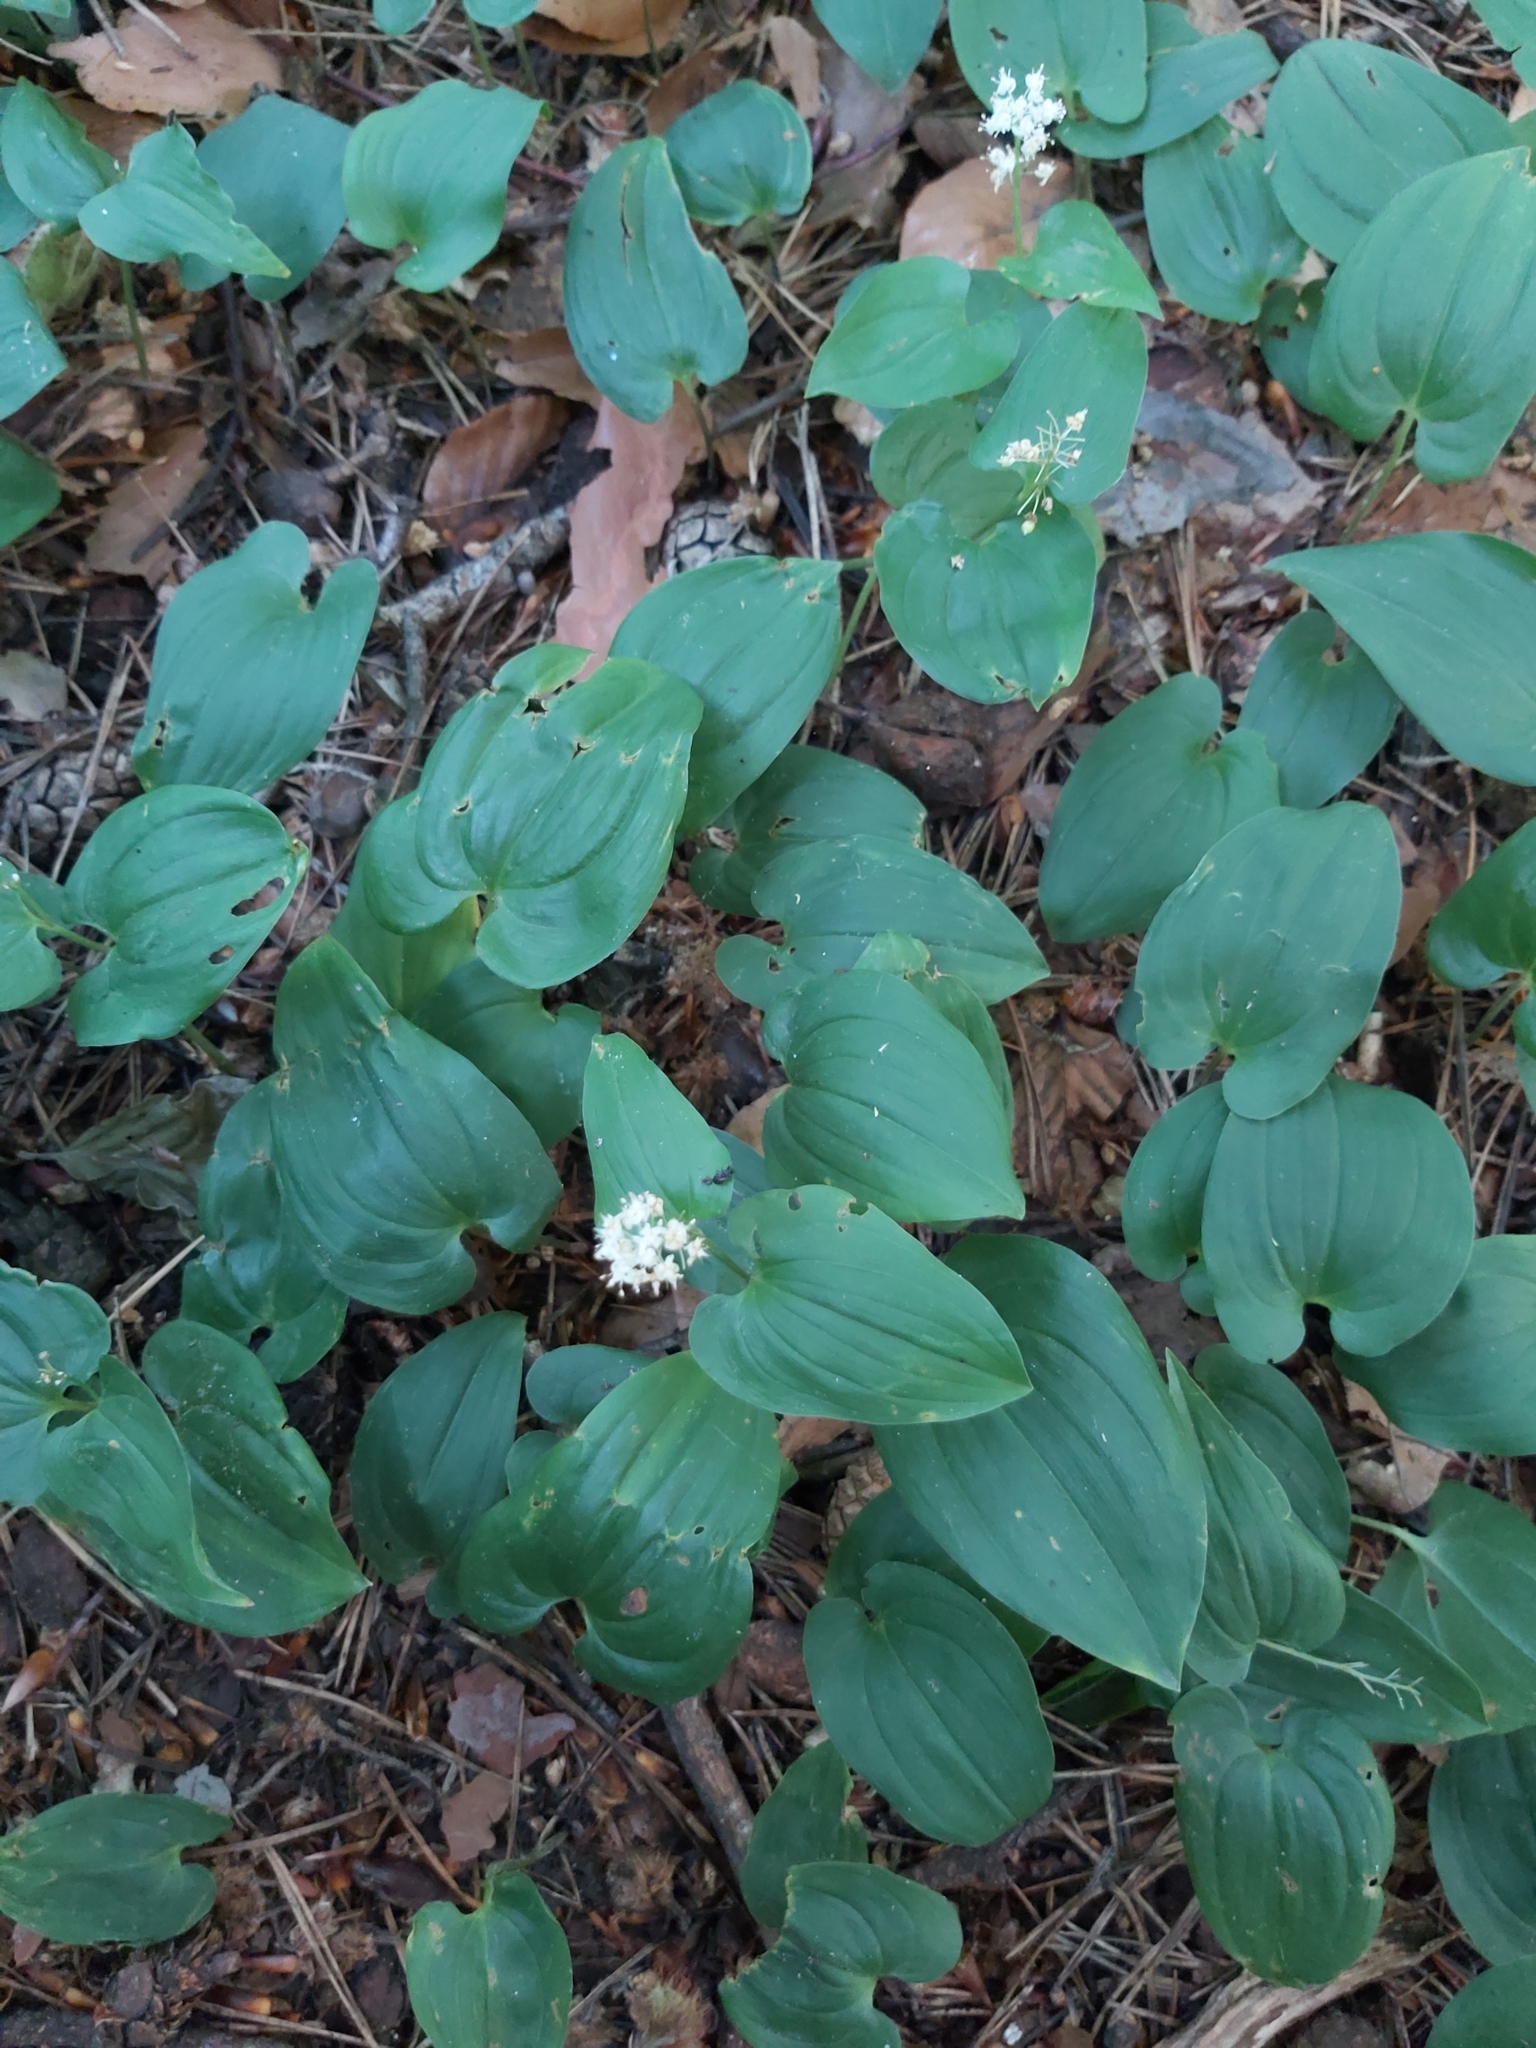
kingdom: Plantae
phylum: Tracheophyta
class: Liliopsida
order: Asparagales
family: Asparagaceae
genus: Maianthemum
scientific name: Maianthemum bifolium
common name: May lily
